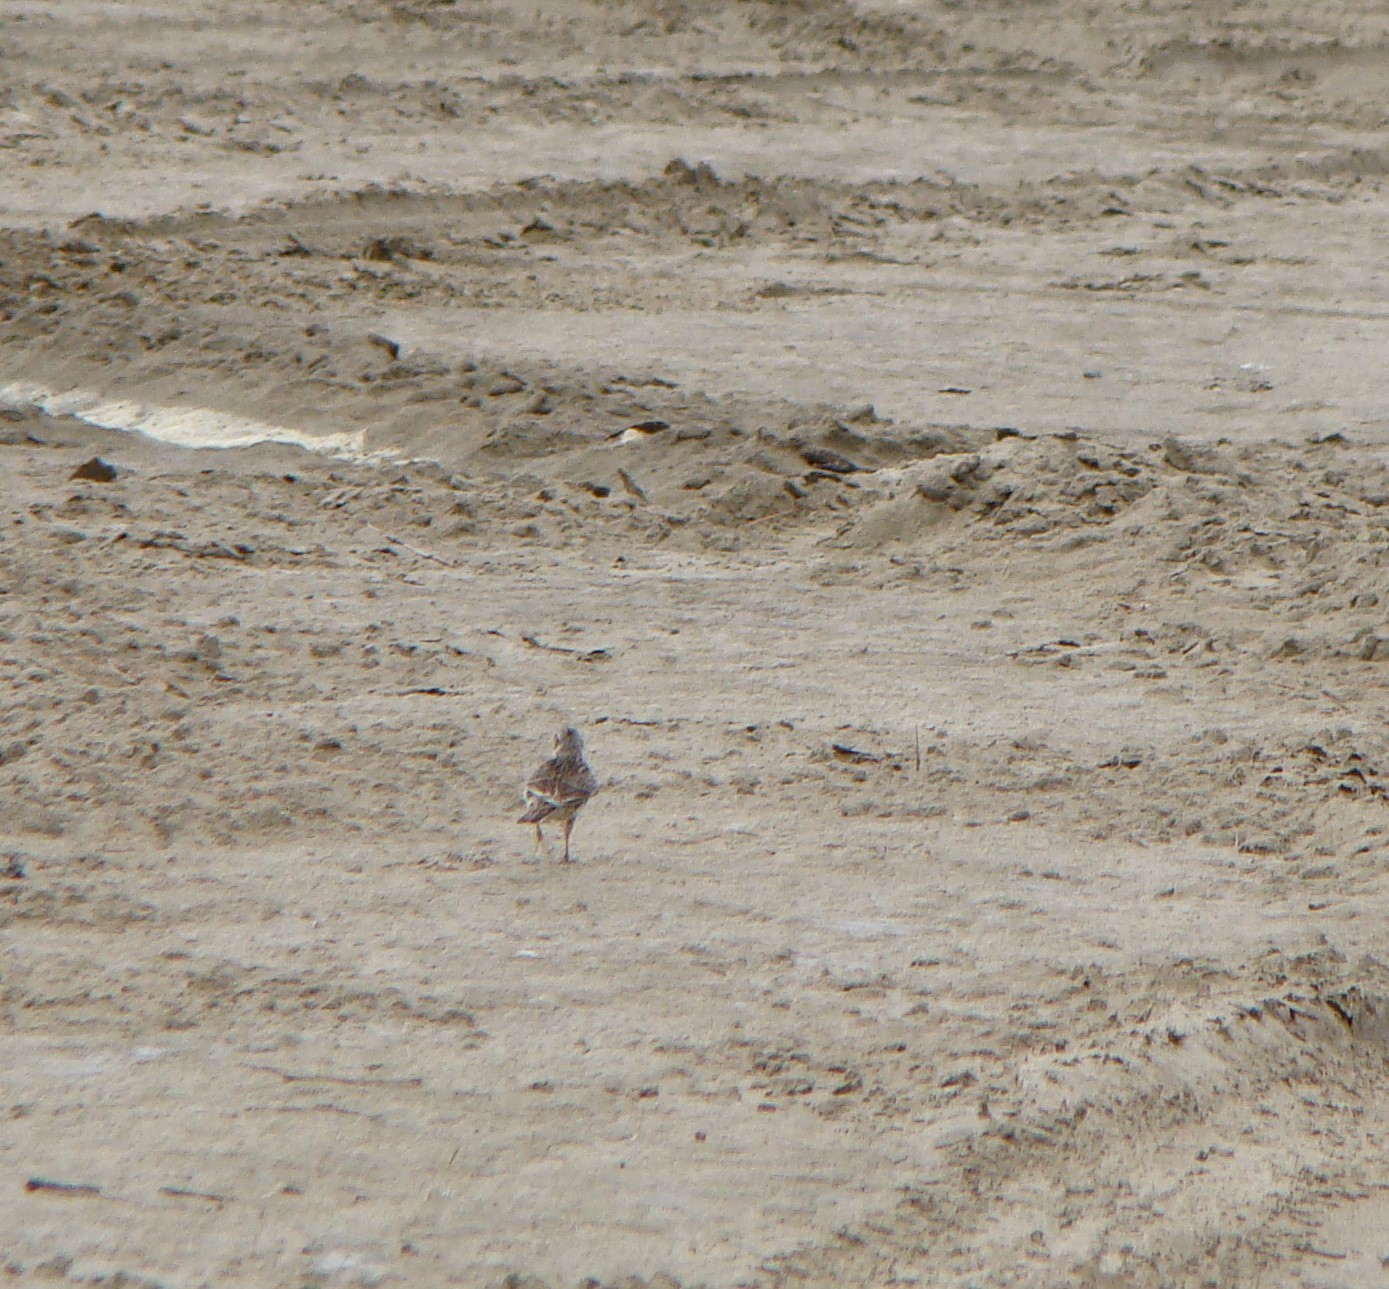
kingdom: Animalia
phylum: Chordata
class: Aves
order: Passeriformes
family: Motacillidae
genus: Anthus
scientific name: Anthus novaeseelandiae
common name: New zealand pipit
